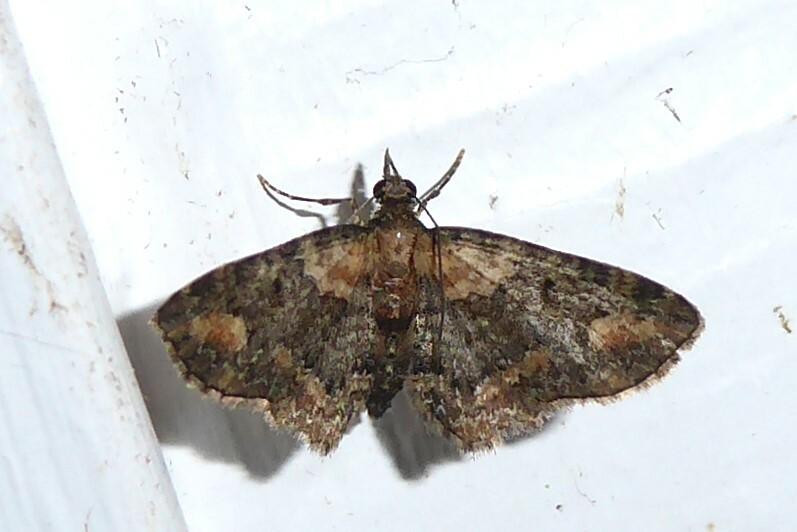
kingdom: Animalia
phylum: Arthropoda
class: Insecta
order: Lepidoptera
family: Geometridae
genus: Pasiphilodes
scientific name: Pasiphilodes testulata
